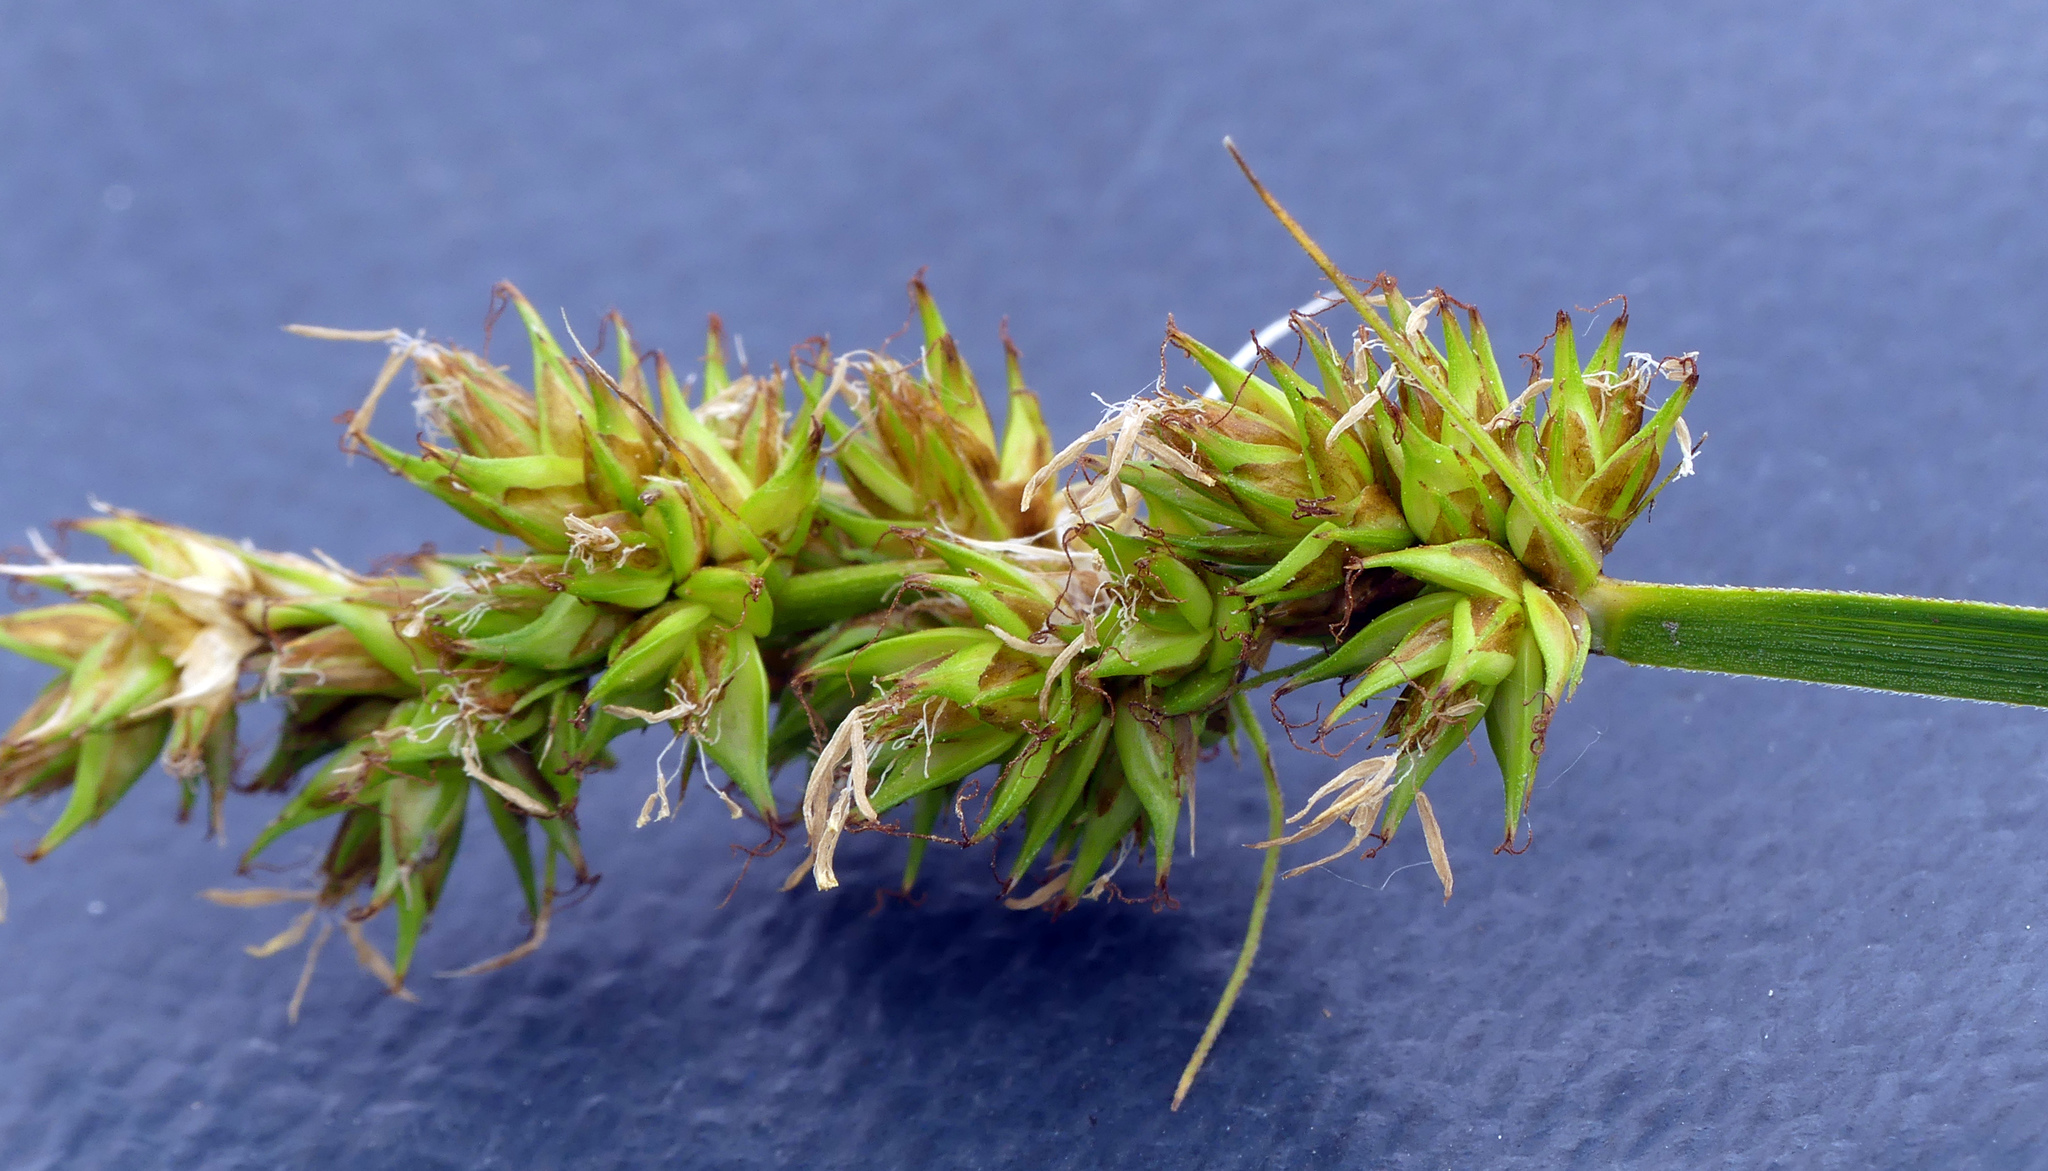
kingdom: Plantae
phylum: Tracheophyta
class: Liliopsida
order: Poales
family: Cyperaceae
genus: Carex
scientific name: Carex otrubae
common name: False fox-sedge
